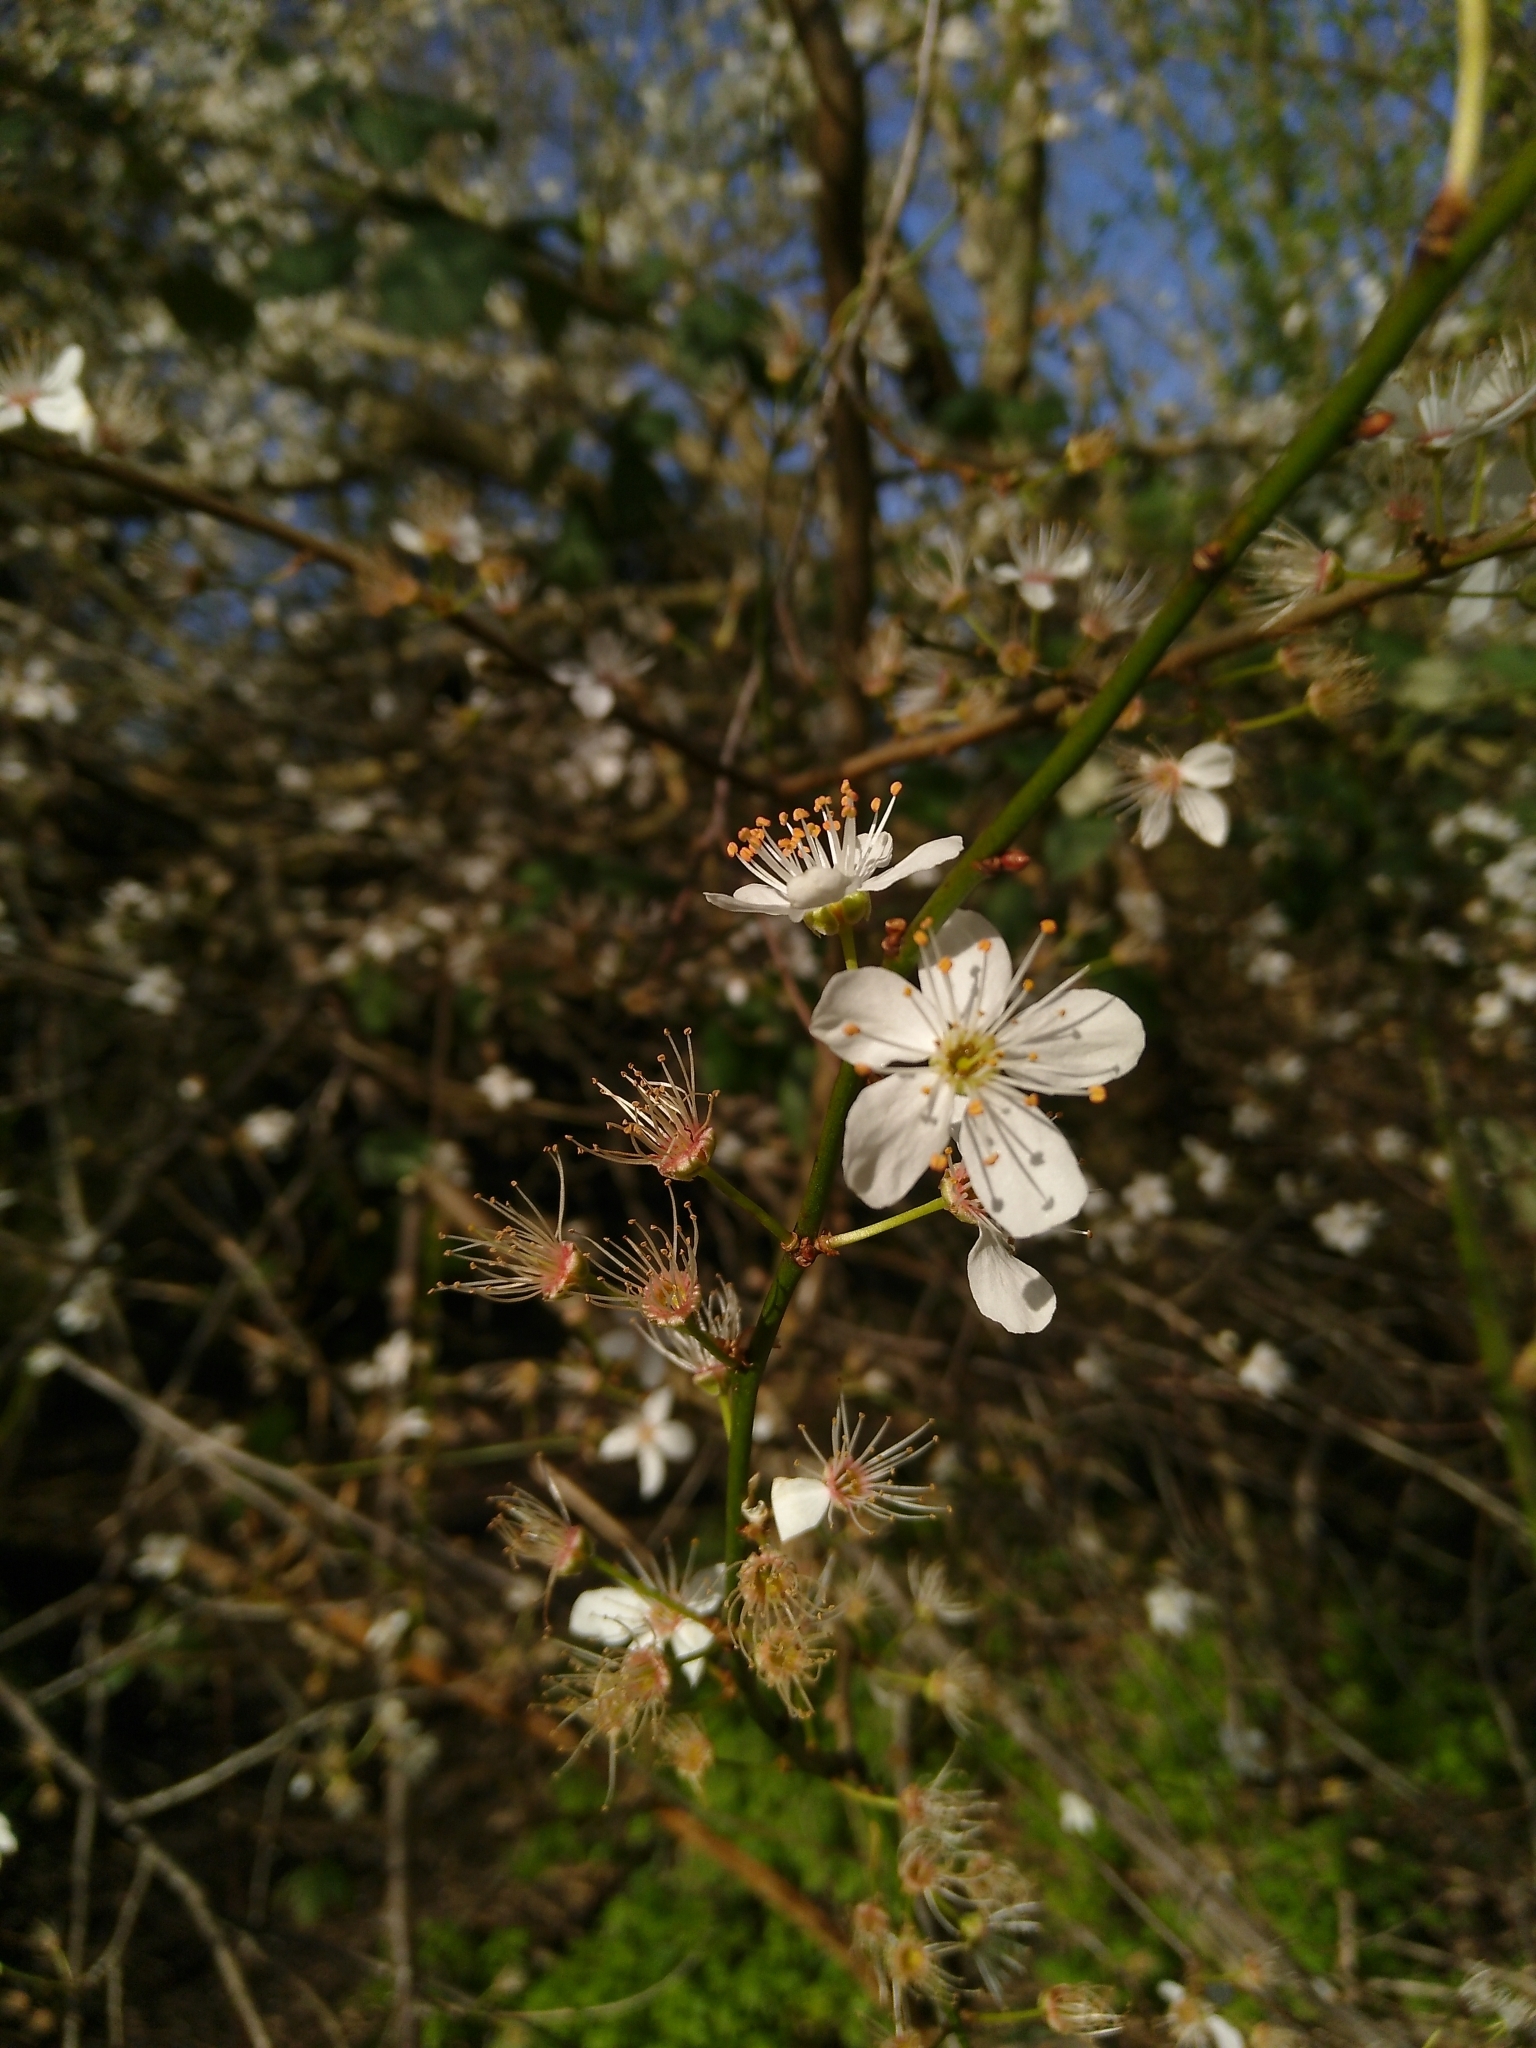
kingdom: Plantae
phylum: Tracheophyta
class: Magnoliopsida
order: Rosales
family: Rosaceae
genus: Prunus
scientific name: Prunus cerasifera
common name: Cherry plum
